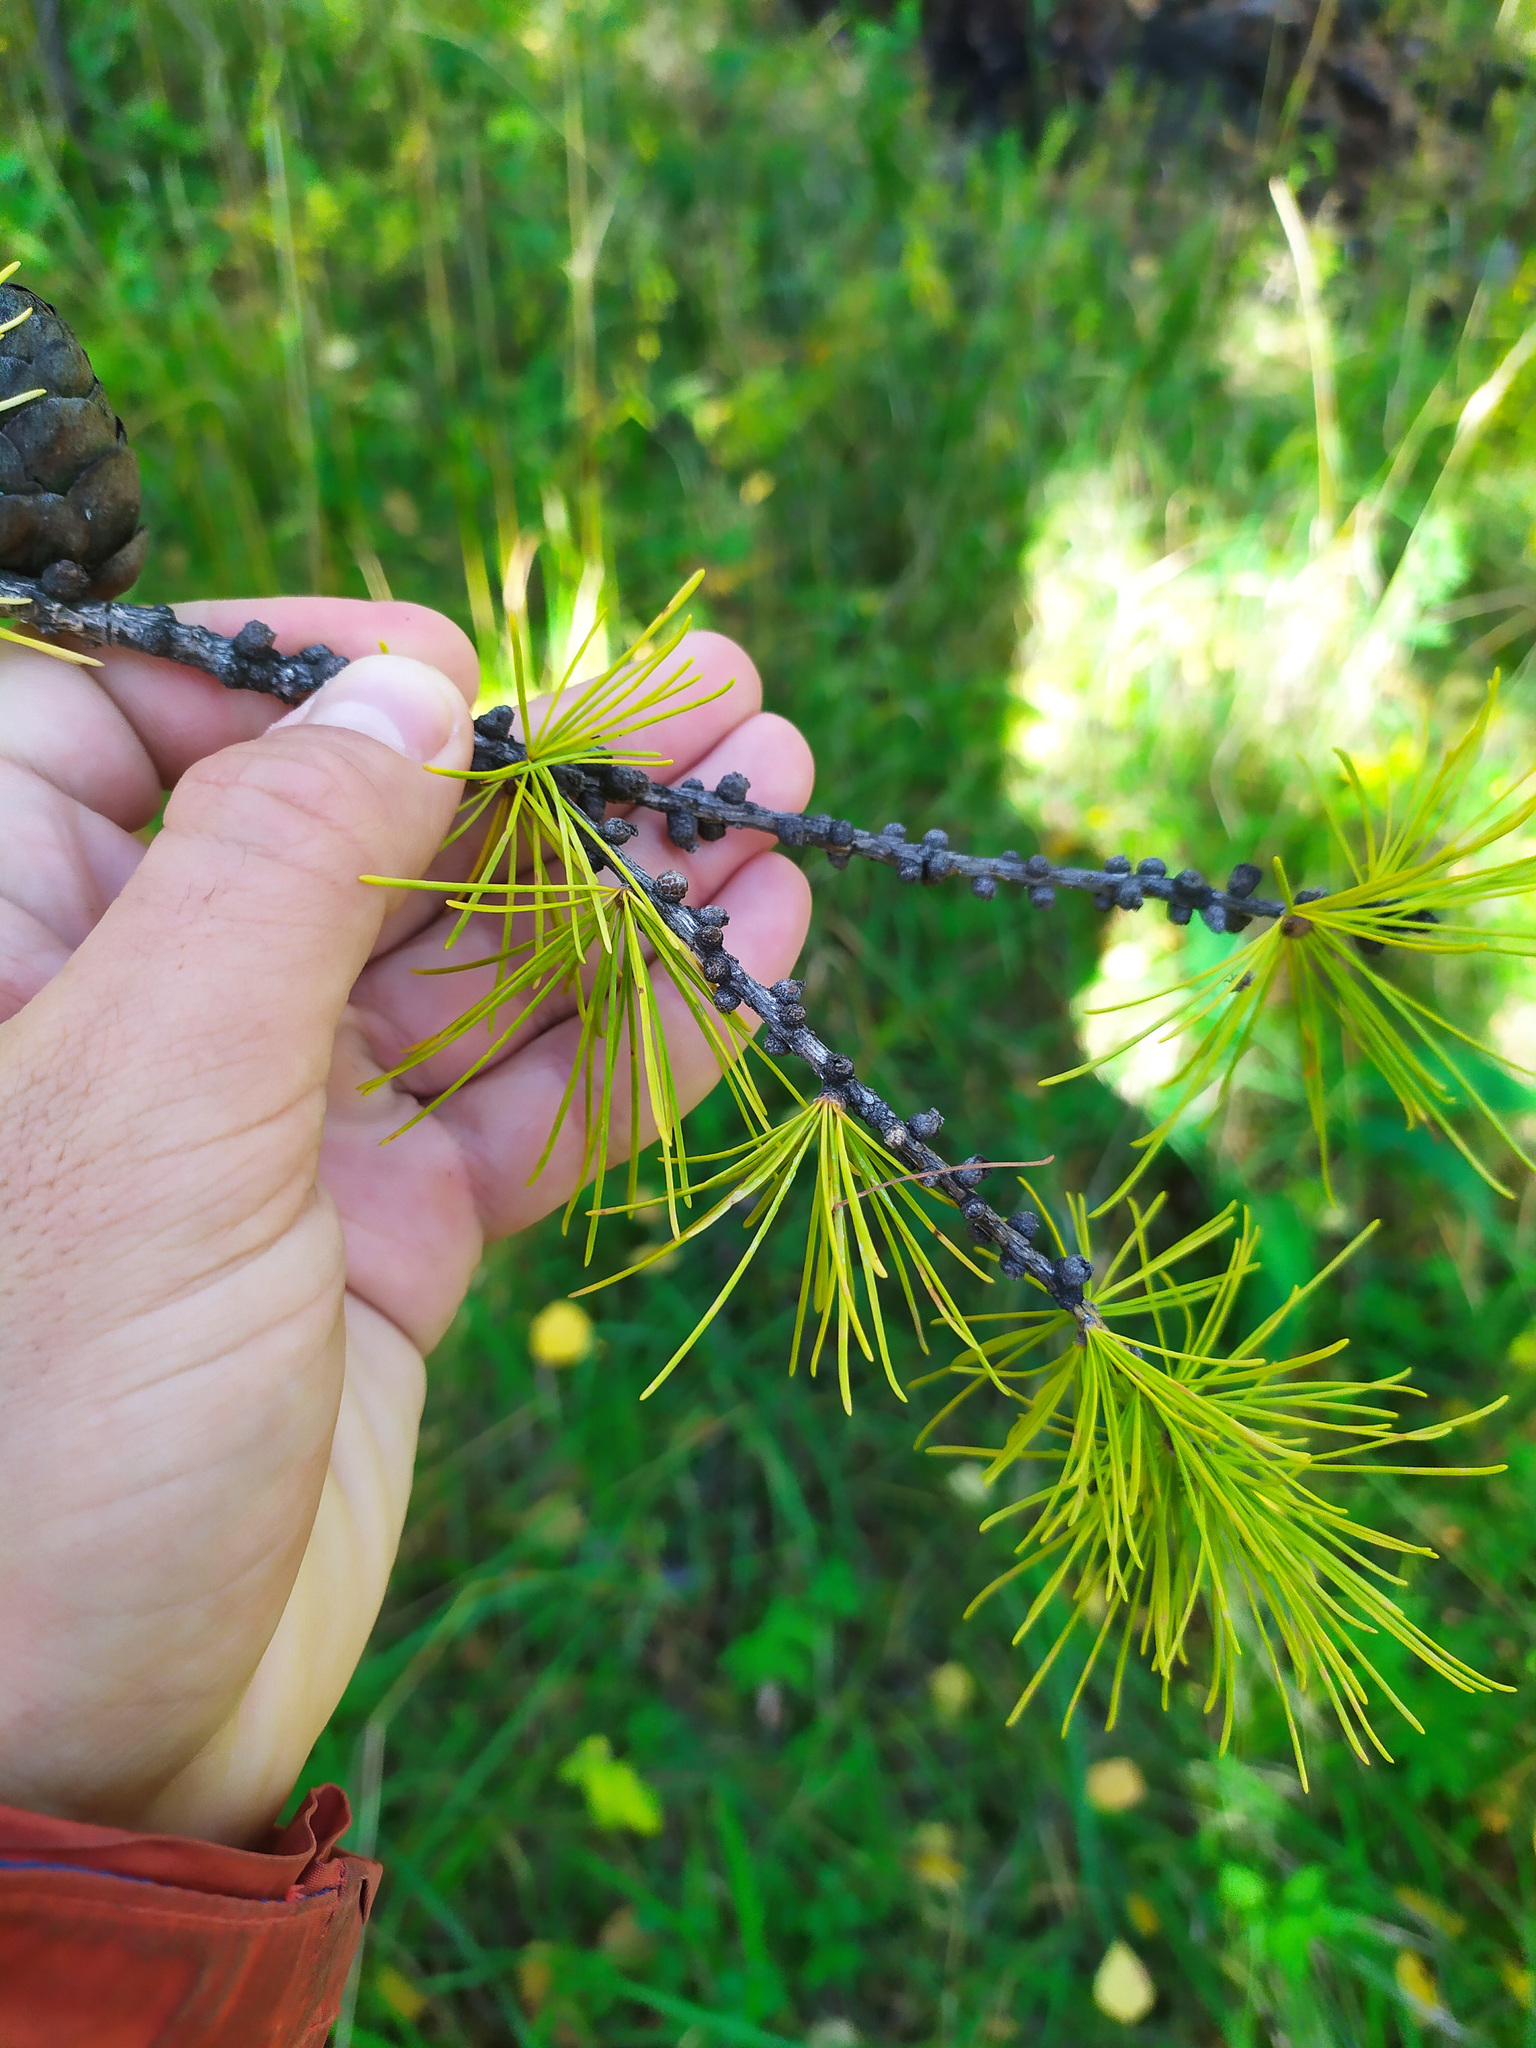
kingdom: Plantae
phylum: Tracheophyta
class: Pinopsida
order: Pinales
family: Pinaceae
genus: Larix
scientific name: Larix sibirica
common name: Siberian larch
